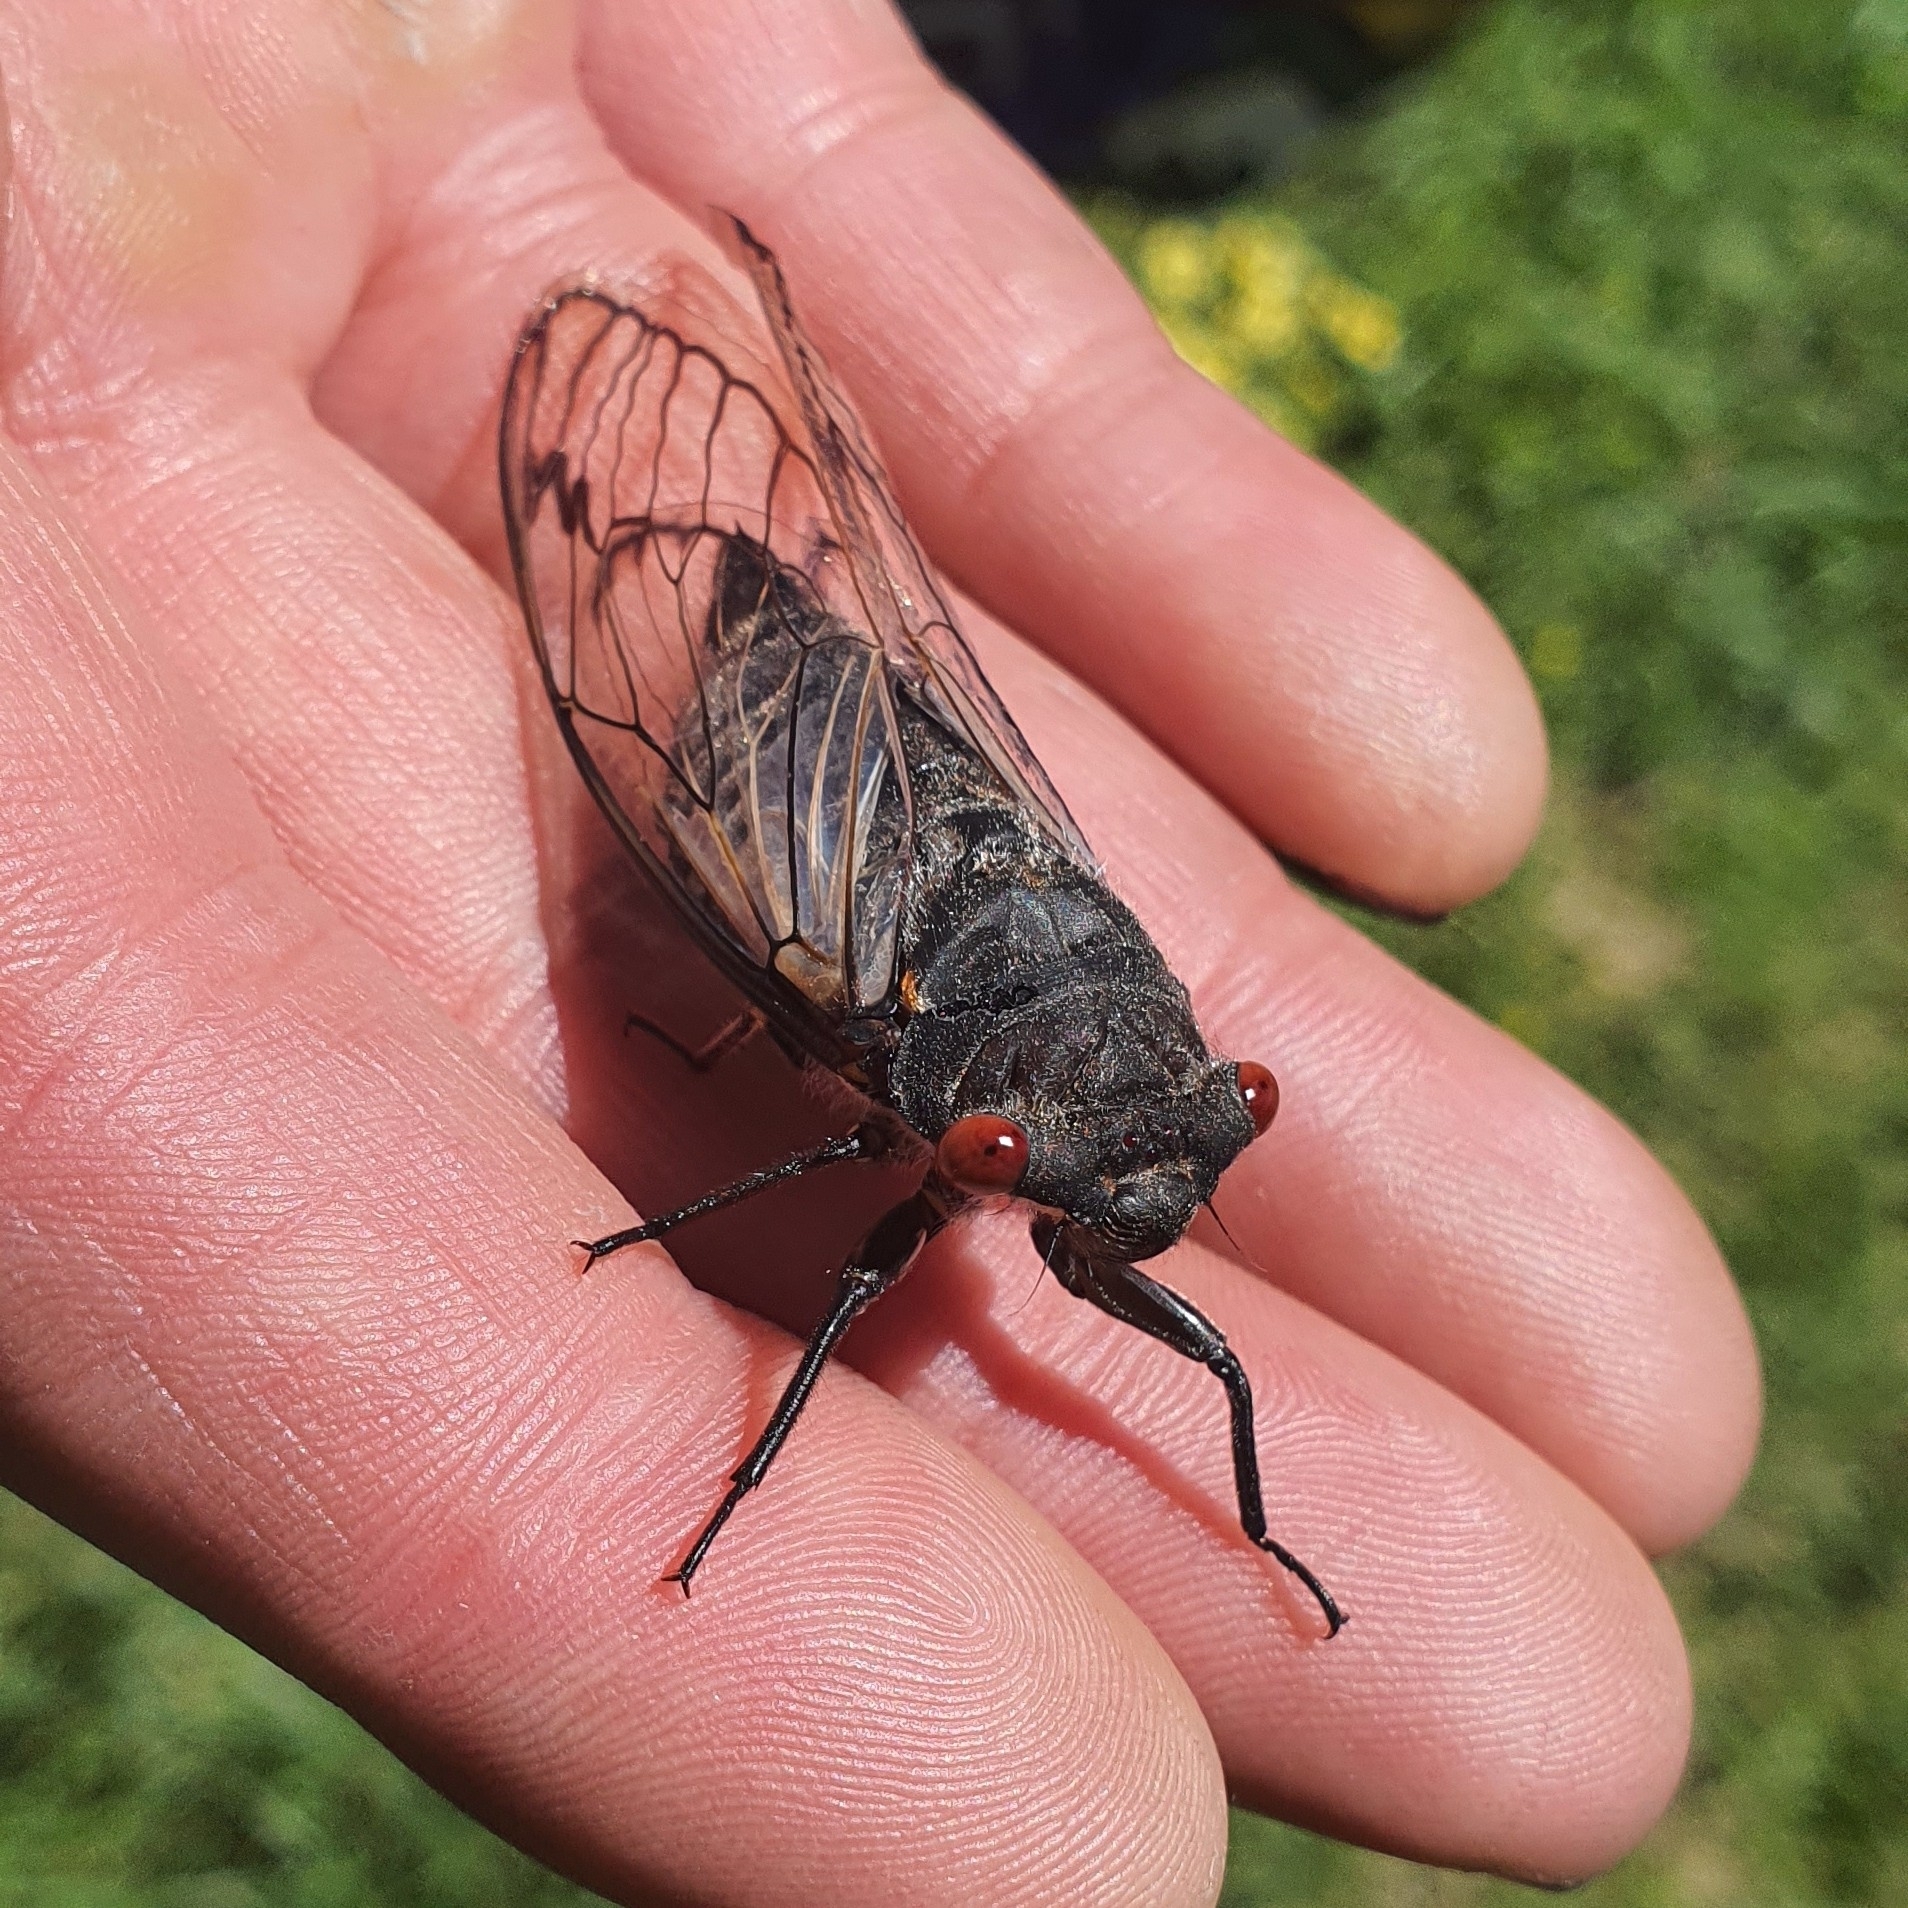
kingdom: Animalia
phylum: Arthropoda
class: Insecta
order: Hemiptera
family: Cicadidae
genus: Psaltoda
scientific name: Psaltoda moerens
